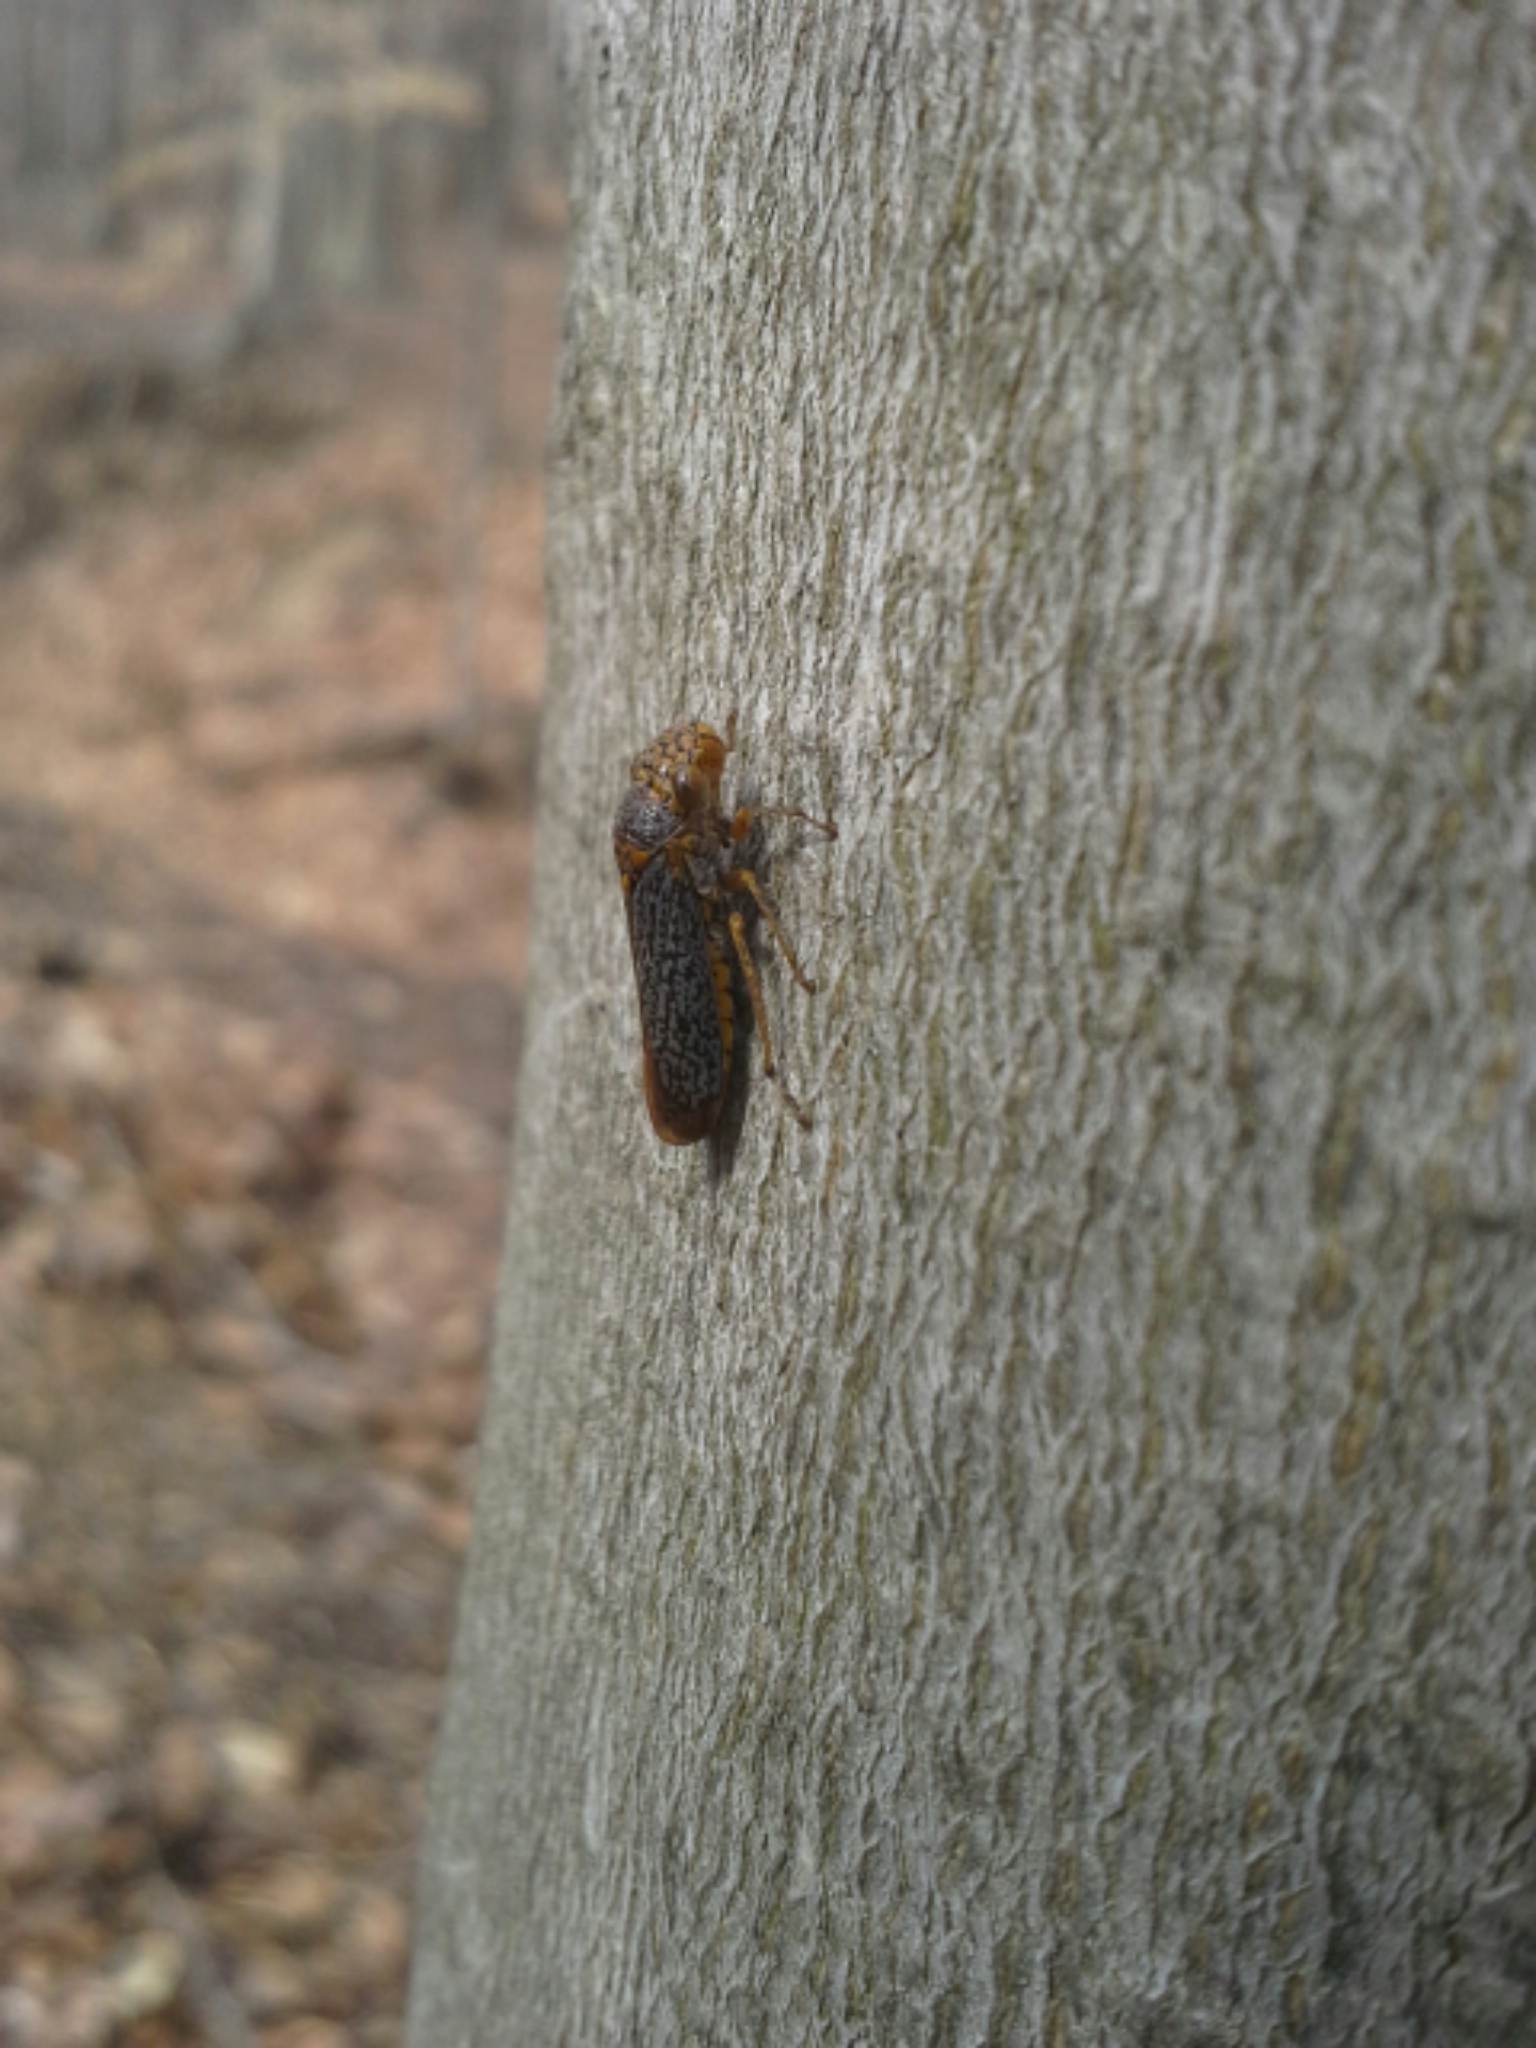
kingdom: Animalia
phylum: Arthropoda
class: Insecta
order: Hemiptera
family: Cicadellidae
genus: Oncometopia
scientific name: Oncometopia orbona
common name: Broad-headed sharpshooter
